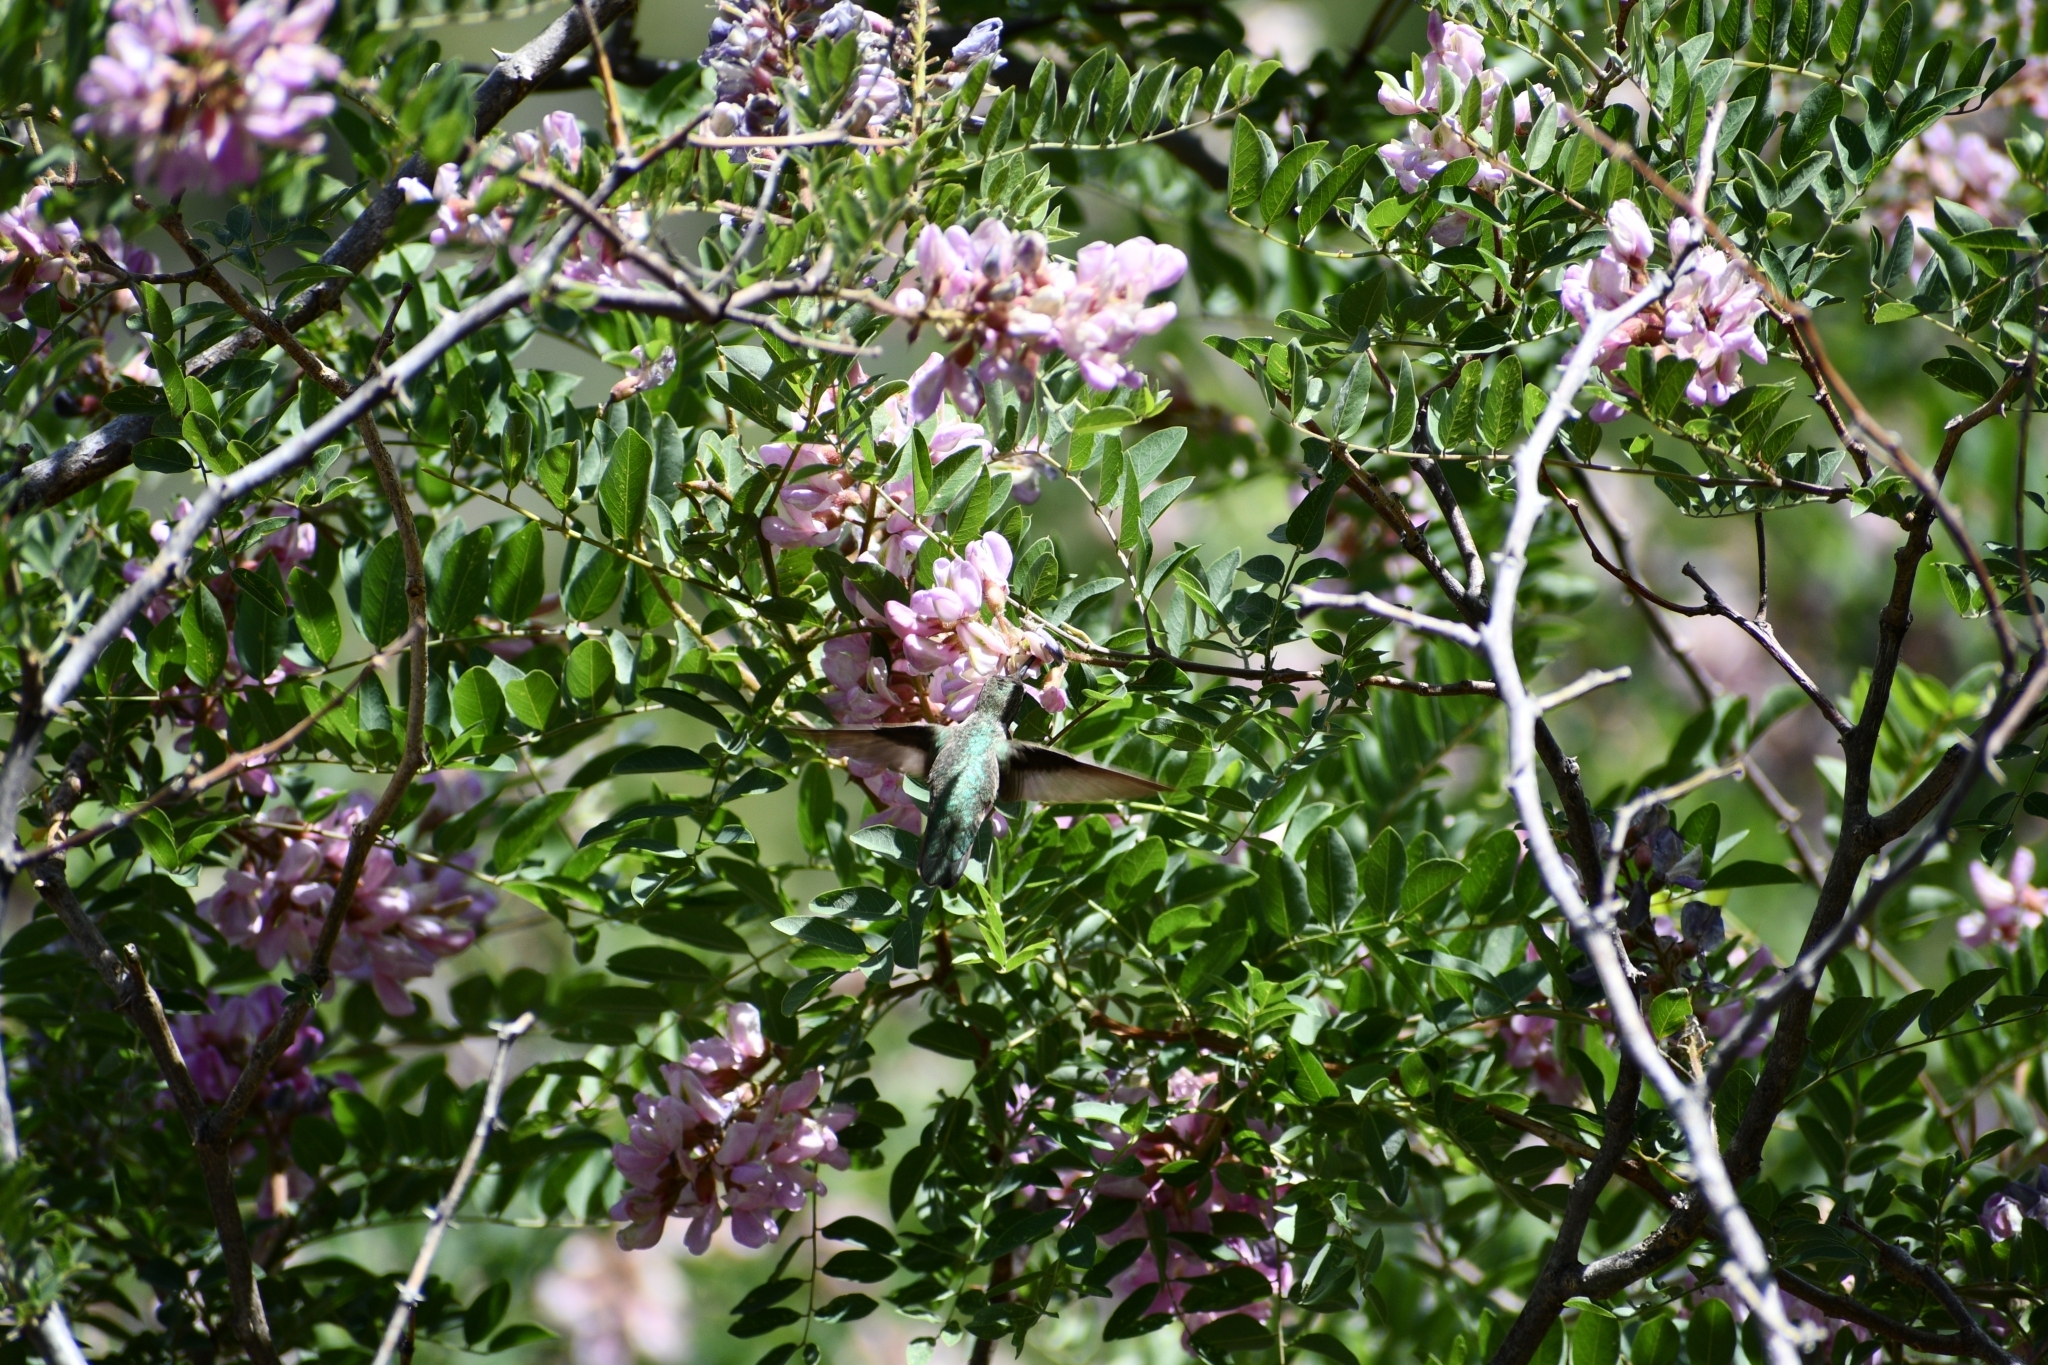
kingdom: Plantae
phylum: Tracheophyta
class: Magnoliopsida
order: Fabales
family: Fabaceae
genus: Robinia
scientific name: Robinia neomexicana
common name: New mexico locust
